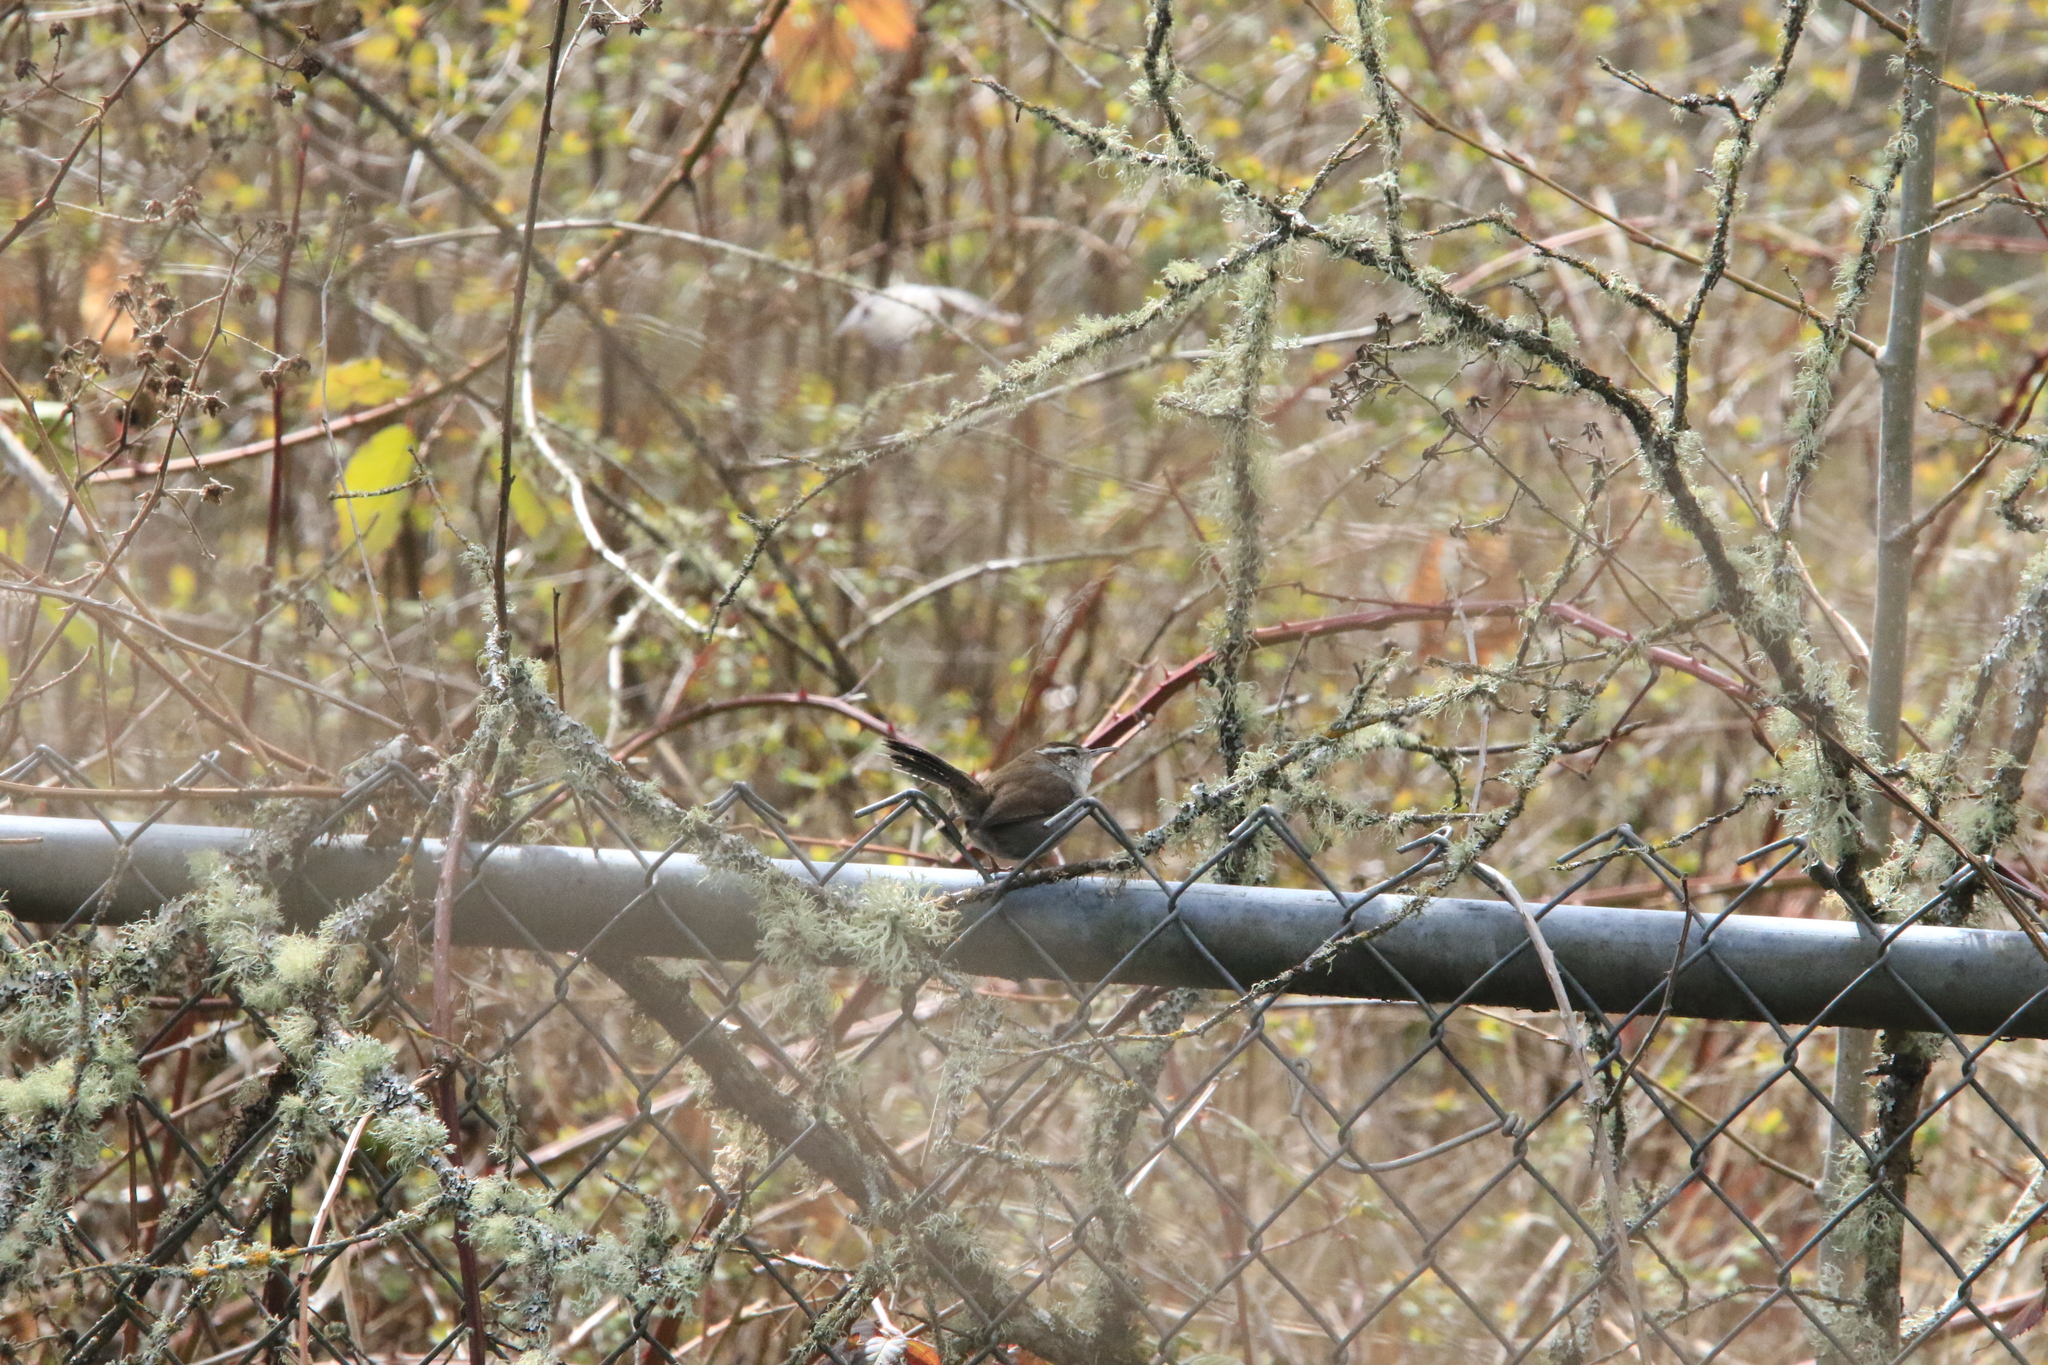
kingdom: Animalia
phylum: Chordata
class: Aves
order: Passeriformes
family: Troglodytidae
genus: Thryomanes
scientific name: Thryomanes bewickii
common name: Bewick's wren
